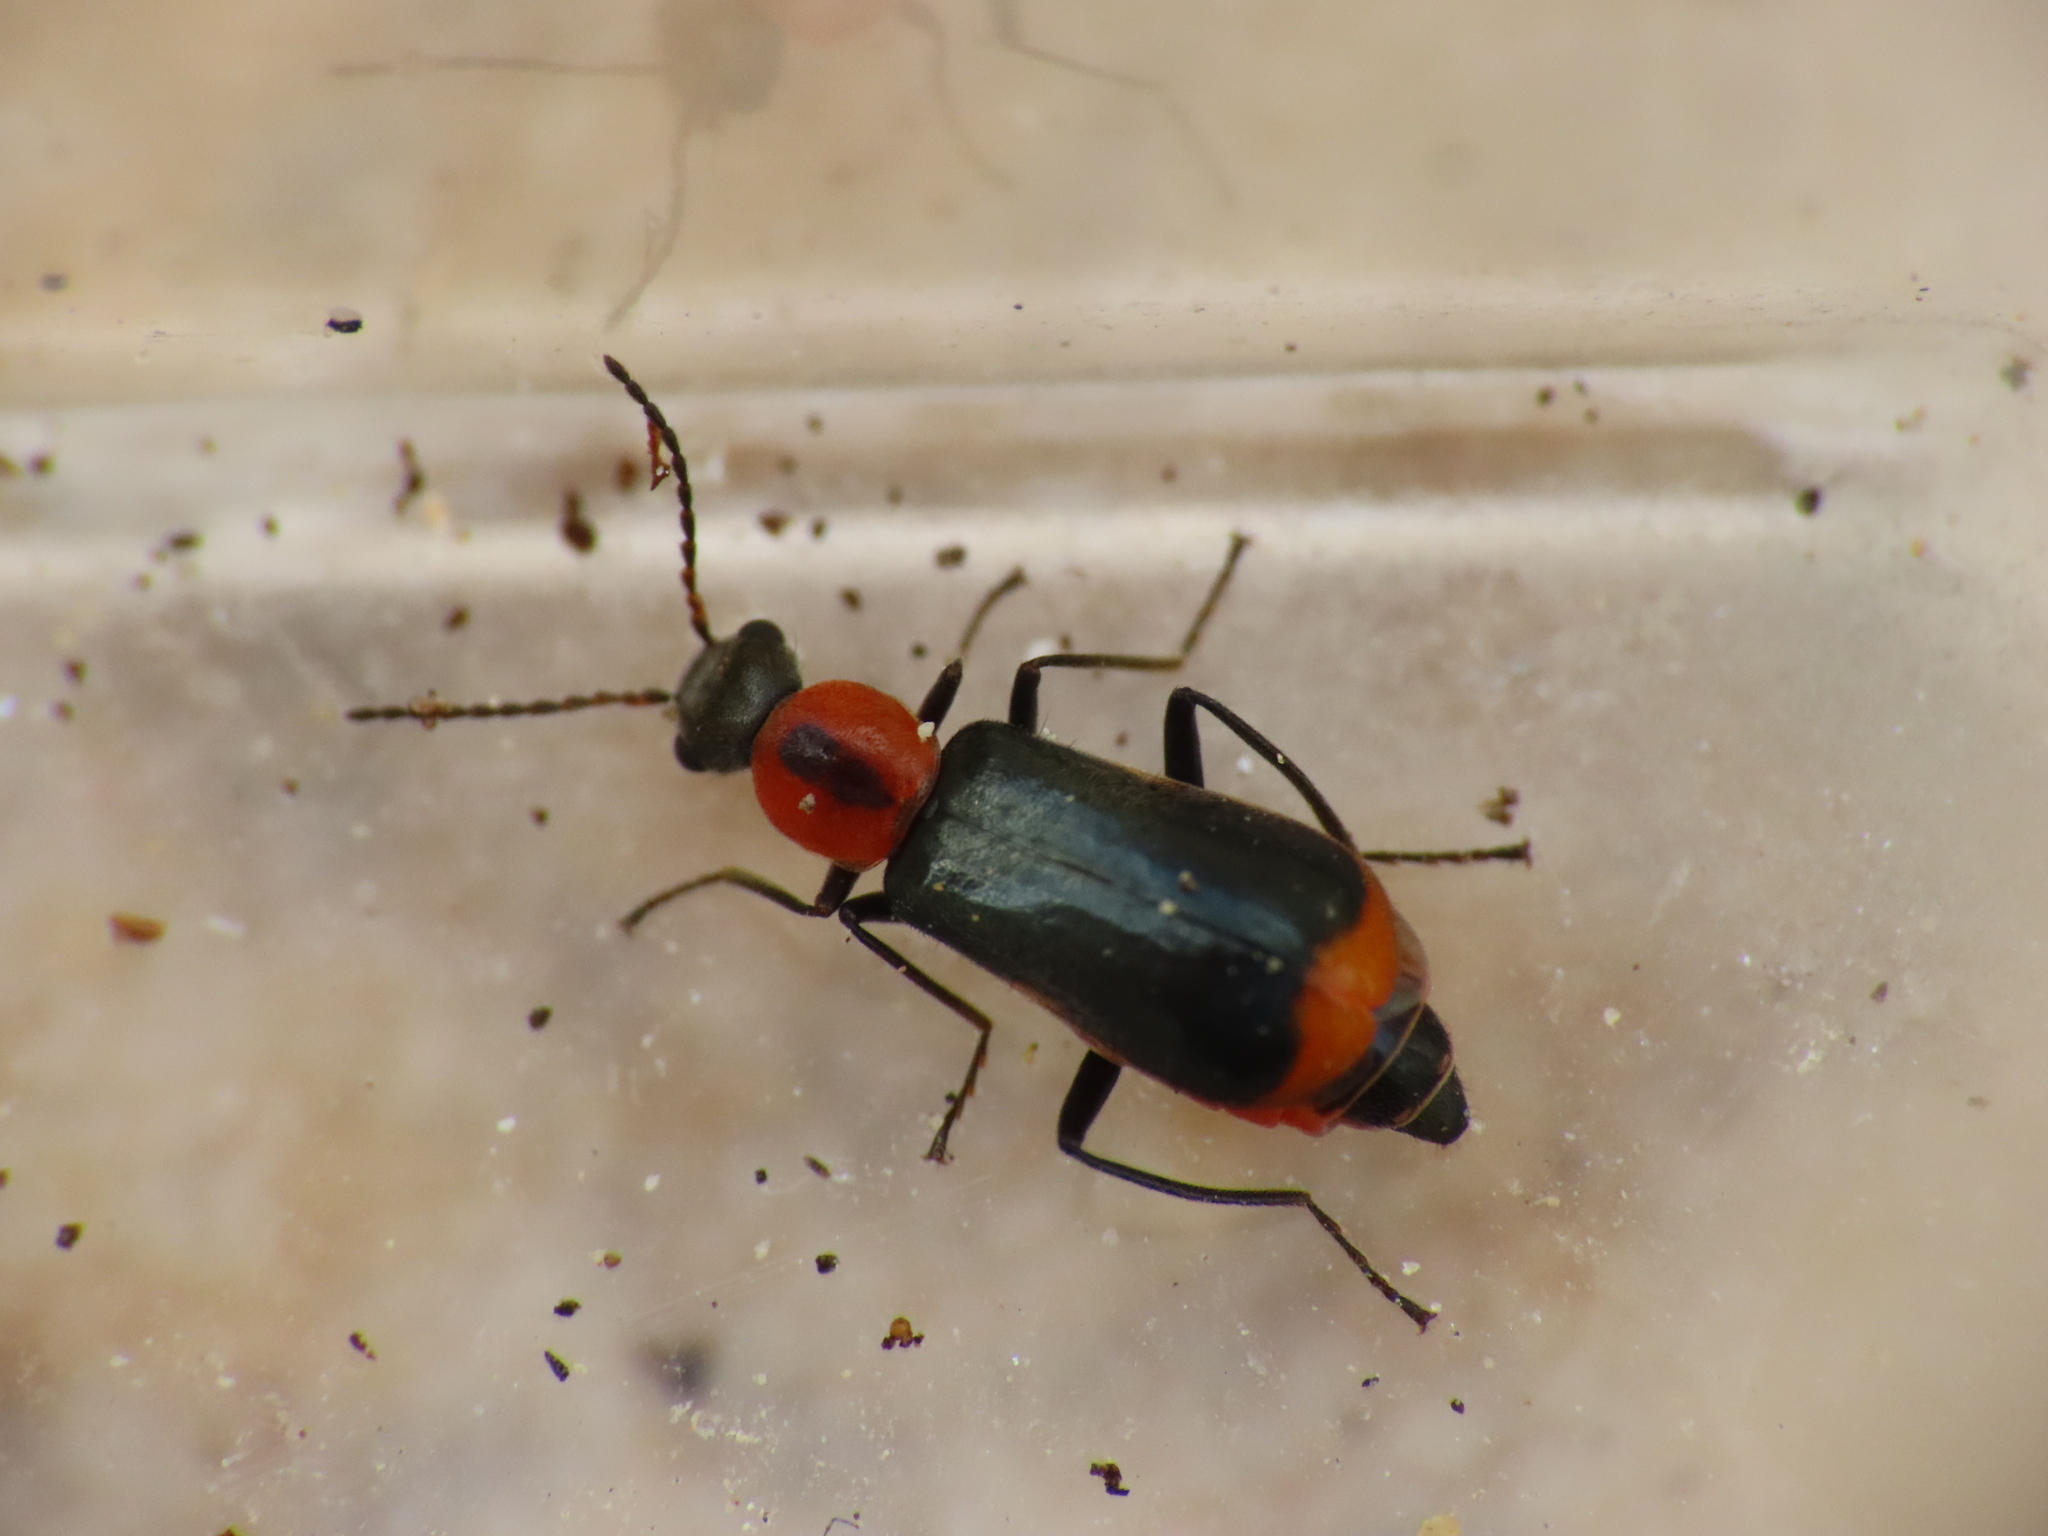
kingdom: Animalia
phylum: Arthropoda
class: Insecta
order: Coleoptera
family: Malachiidae
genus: Attalus
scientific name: Attalus minimus
